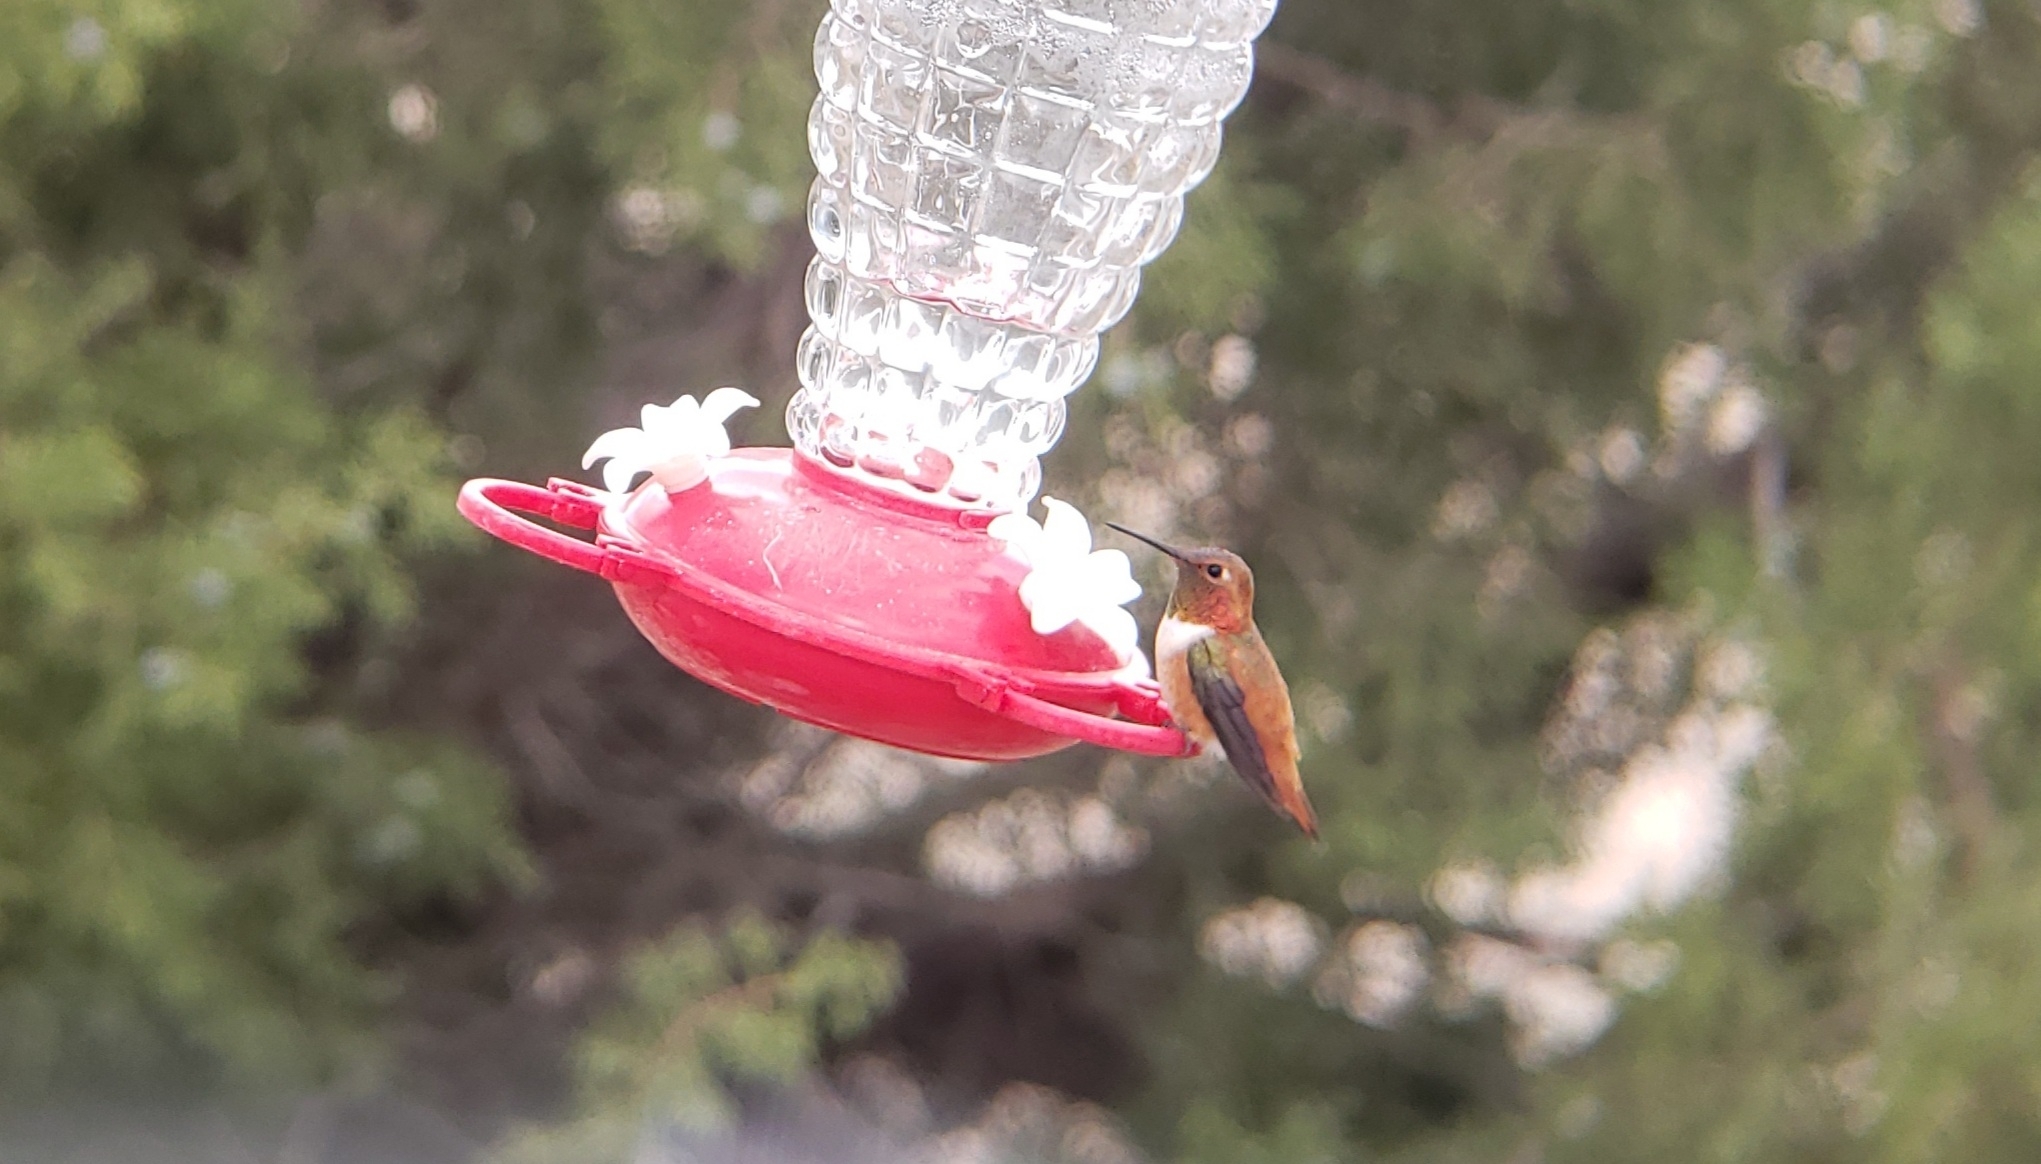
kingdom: Animalia
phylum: Chordata
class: Aves
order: Apodiformes
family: Trochilidae
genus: Selasphorus
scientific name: Selasphorus rufus
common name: Rufous hummingbird
